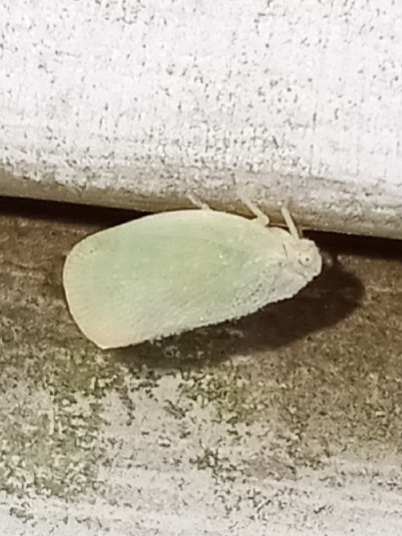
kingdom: Animalia
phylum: Arthropoda
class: Insecta
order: Hemiptera
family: Flatidae
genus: Ormenoides
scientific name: Ormenoides venusta
